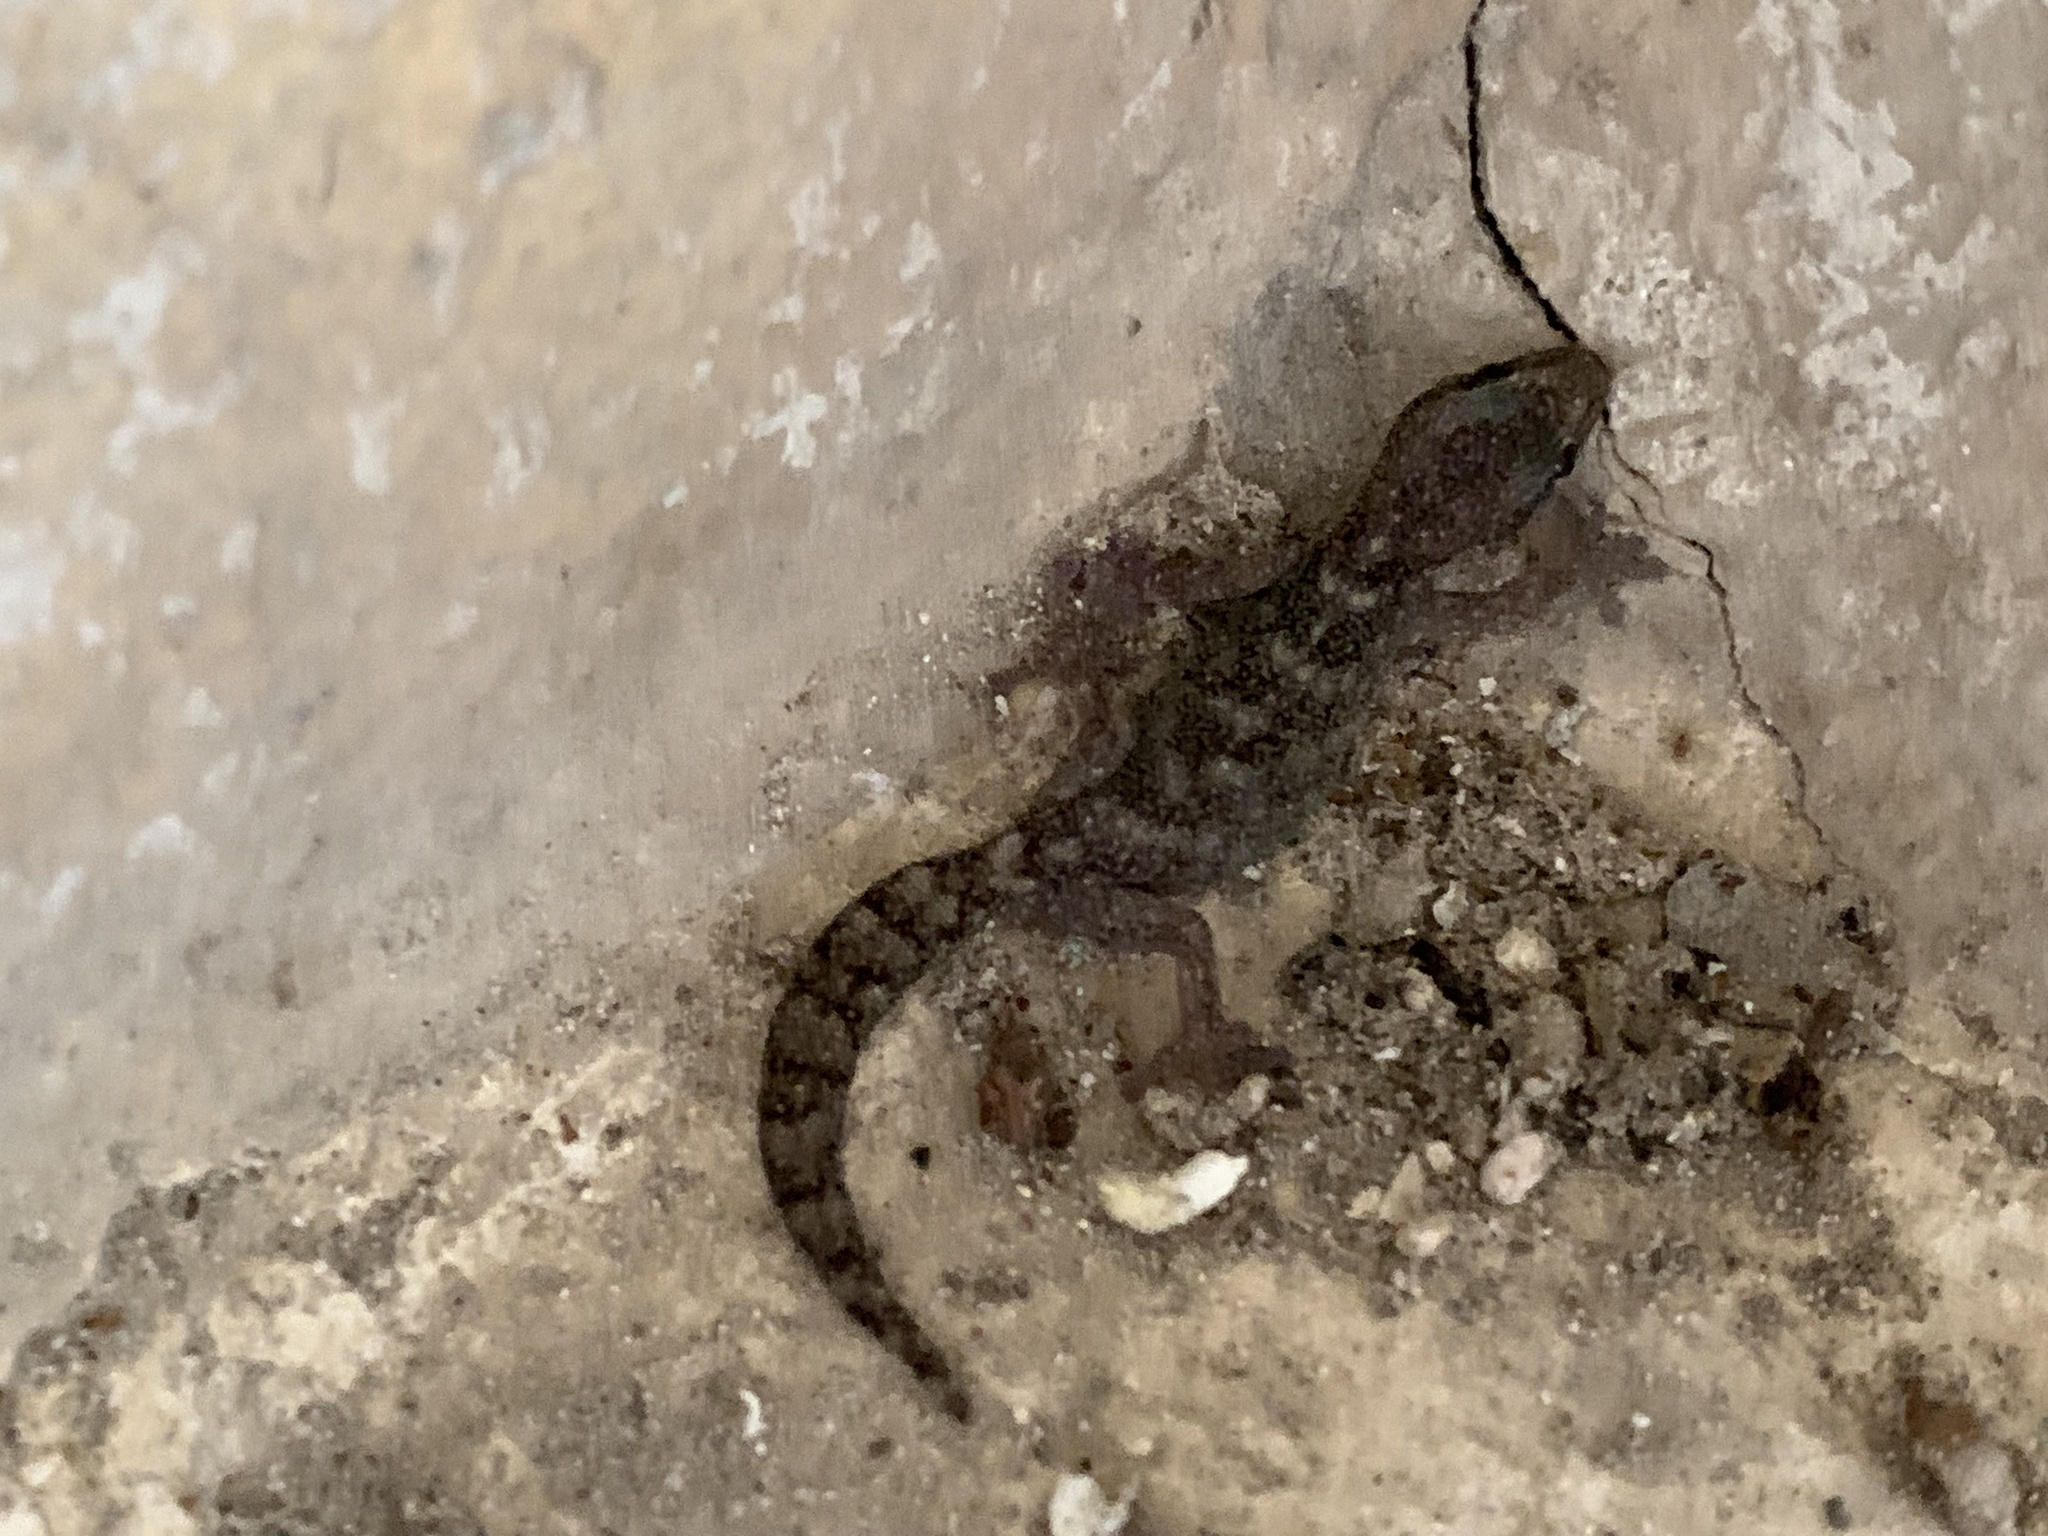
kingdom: Animalia
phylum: Chordata
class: Squamata
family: Sphaerodactylidae
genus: Euleptes
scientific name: Euleptes europaea
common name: English common name not available
